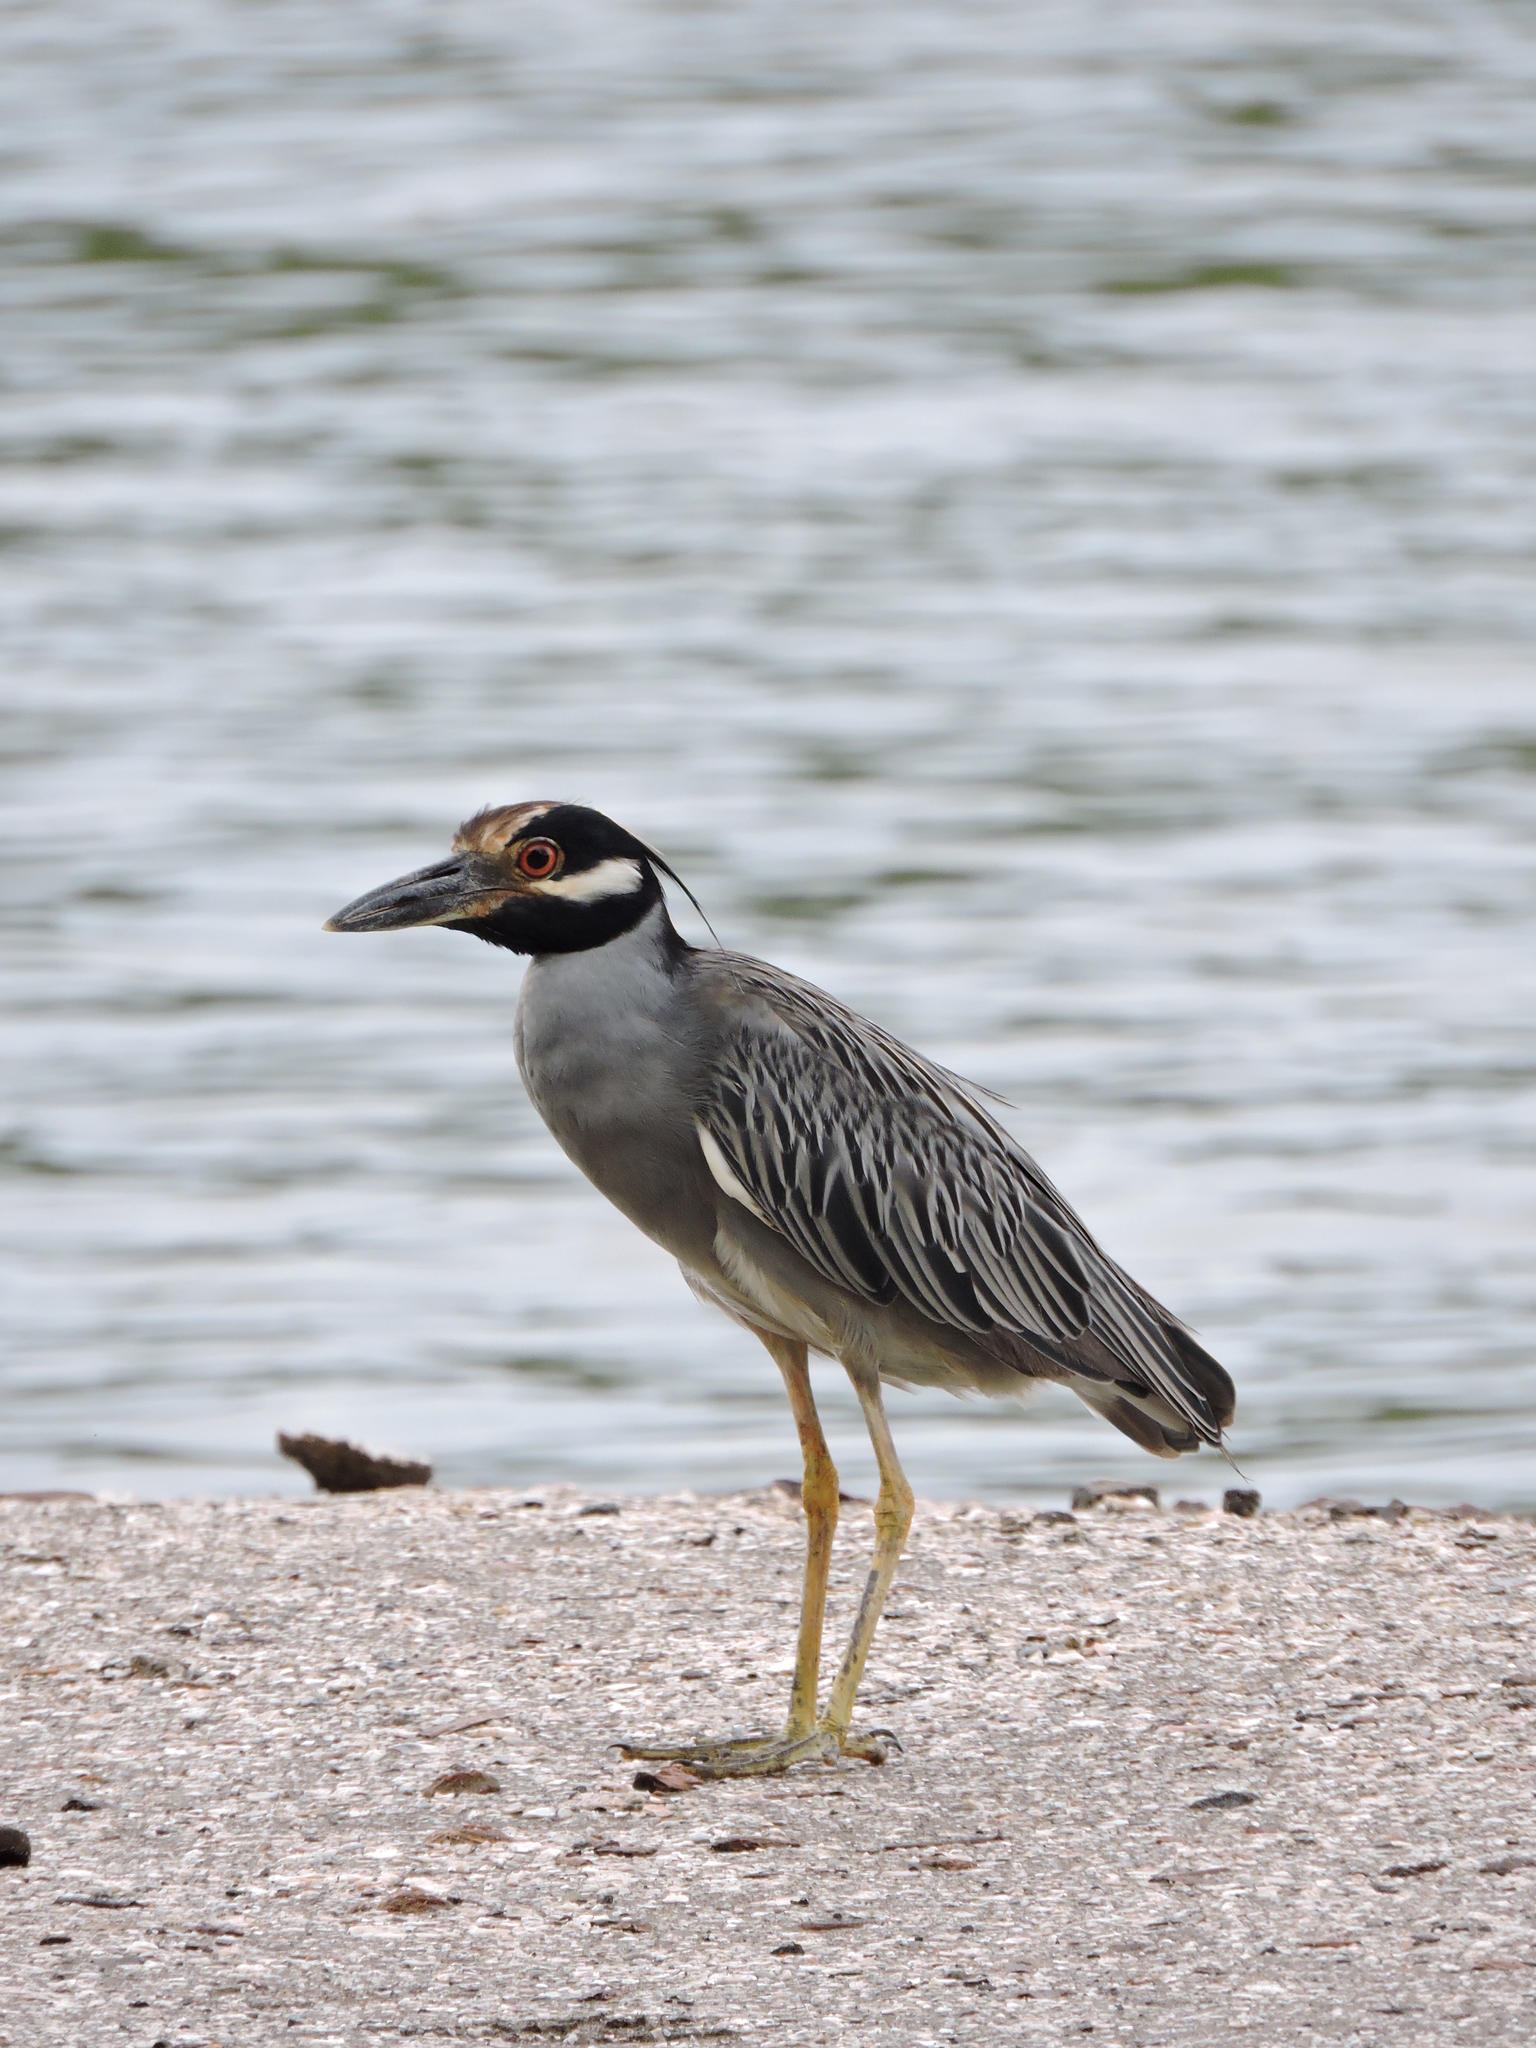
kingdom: Animalia
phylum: Chordata
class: Aves
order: Pelecaniformes
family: Ardeidae
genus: Nyctanassa
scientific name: Nyctanassa violacea
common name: Yellow-crowned night heron
